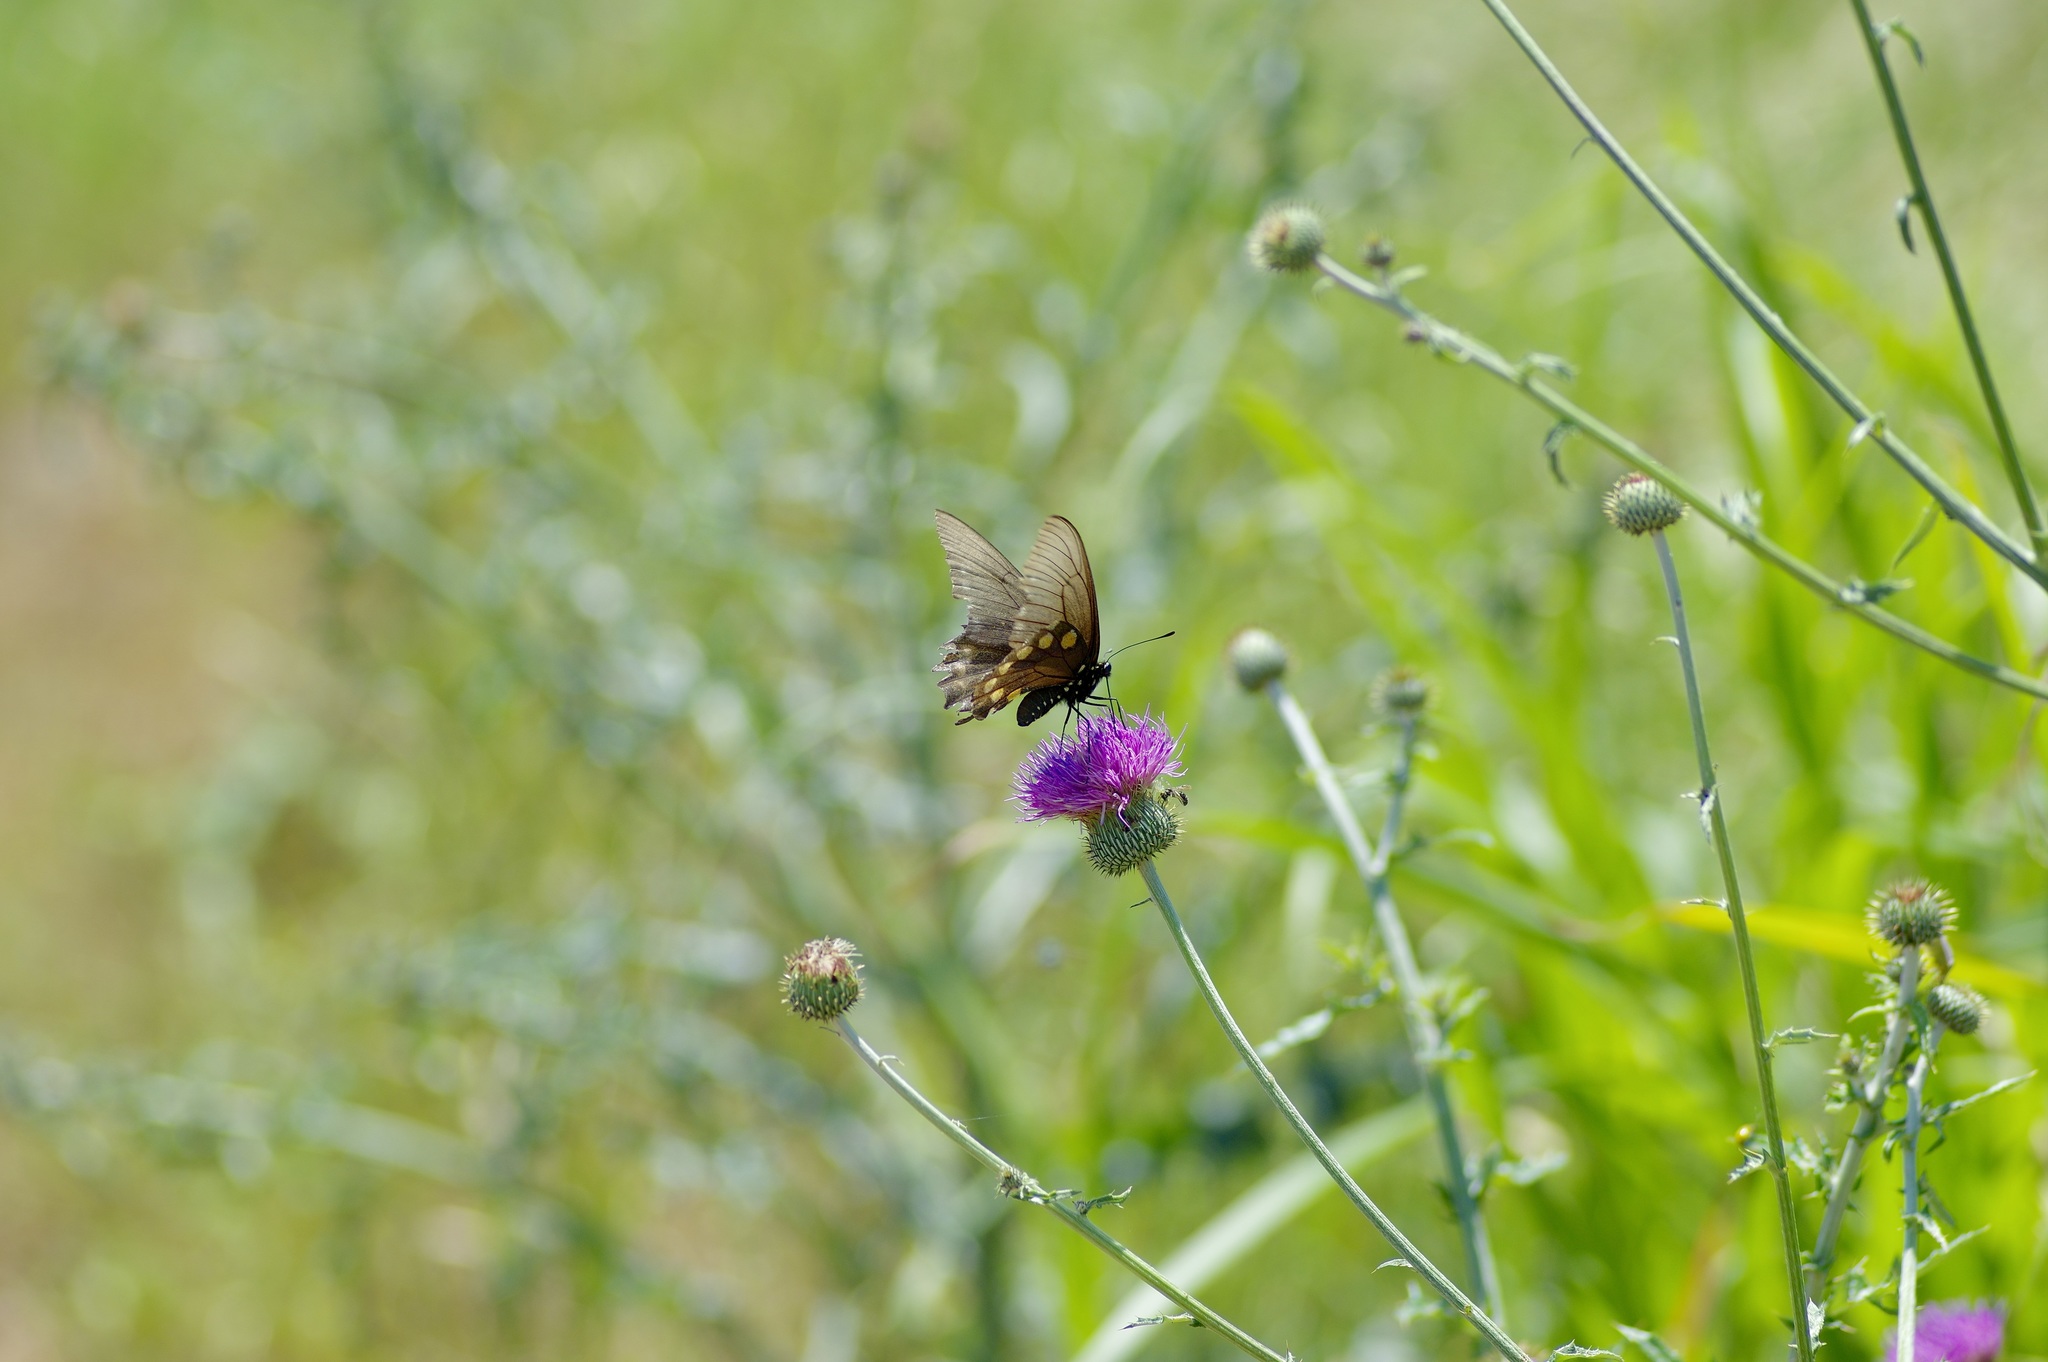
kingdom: Animalia
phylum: Arthropoda
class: Insecta
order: Lepidoptera
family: Papilionidae
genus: Battus
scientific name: Battus philenor
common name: Pipevine swallowtail
